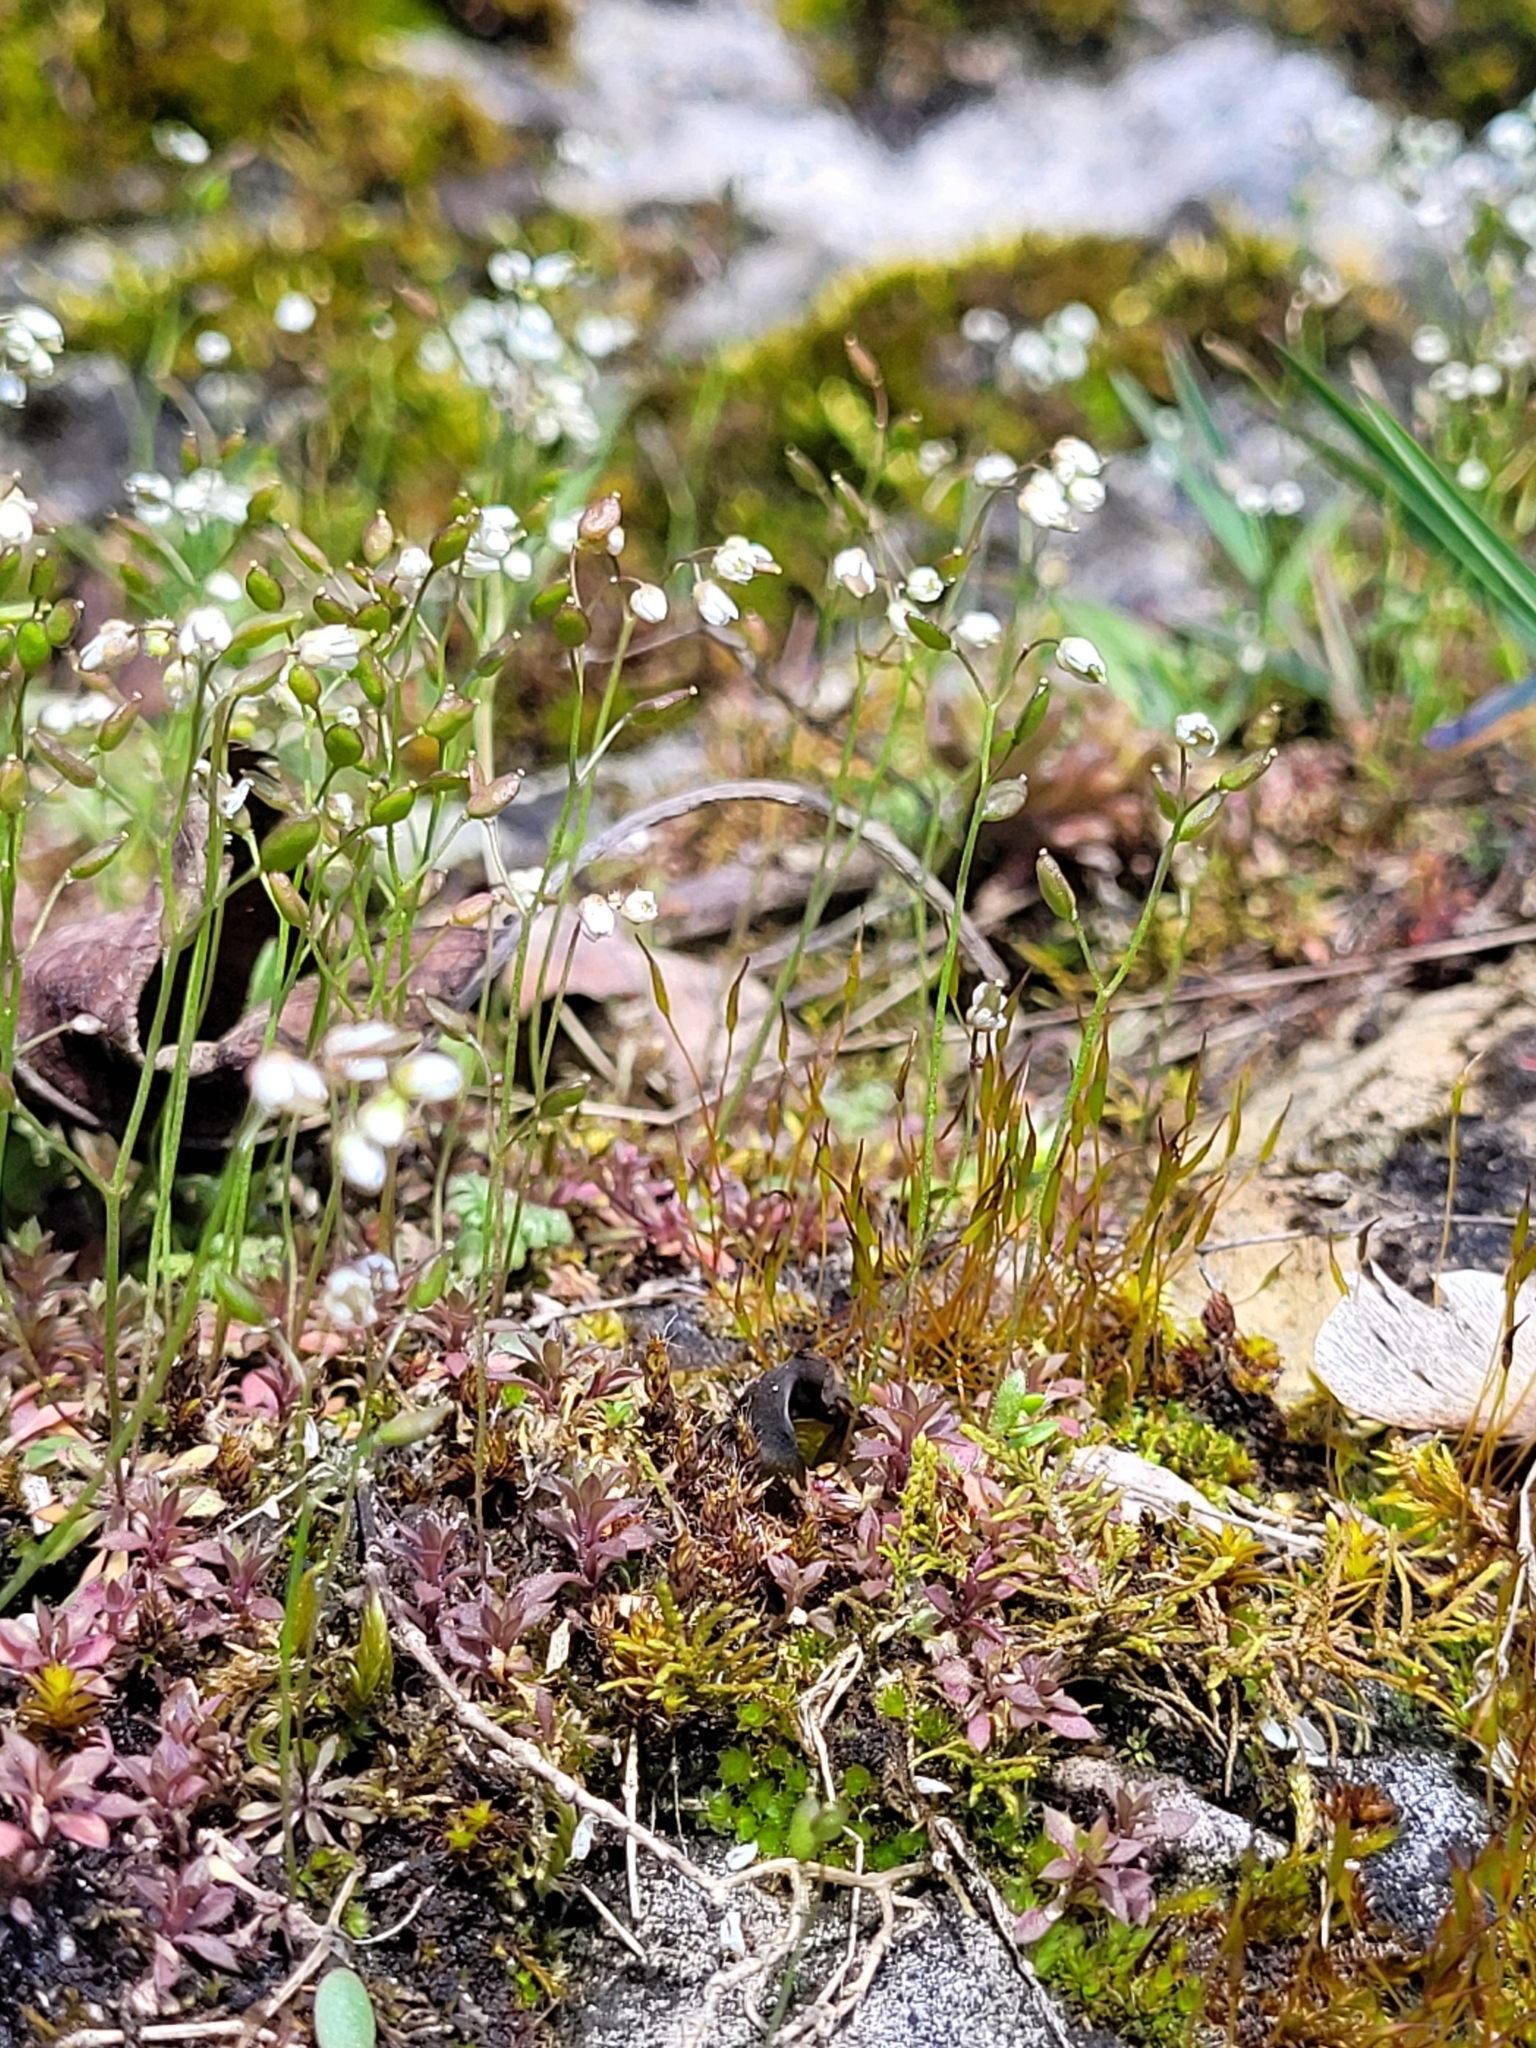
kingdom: Plantae
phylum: Tracheophyta
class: Magnoliopsida
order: Brassicales
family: Brassicaceae
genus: Draba
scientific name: Draba verna
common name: Spring draba
